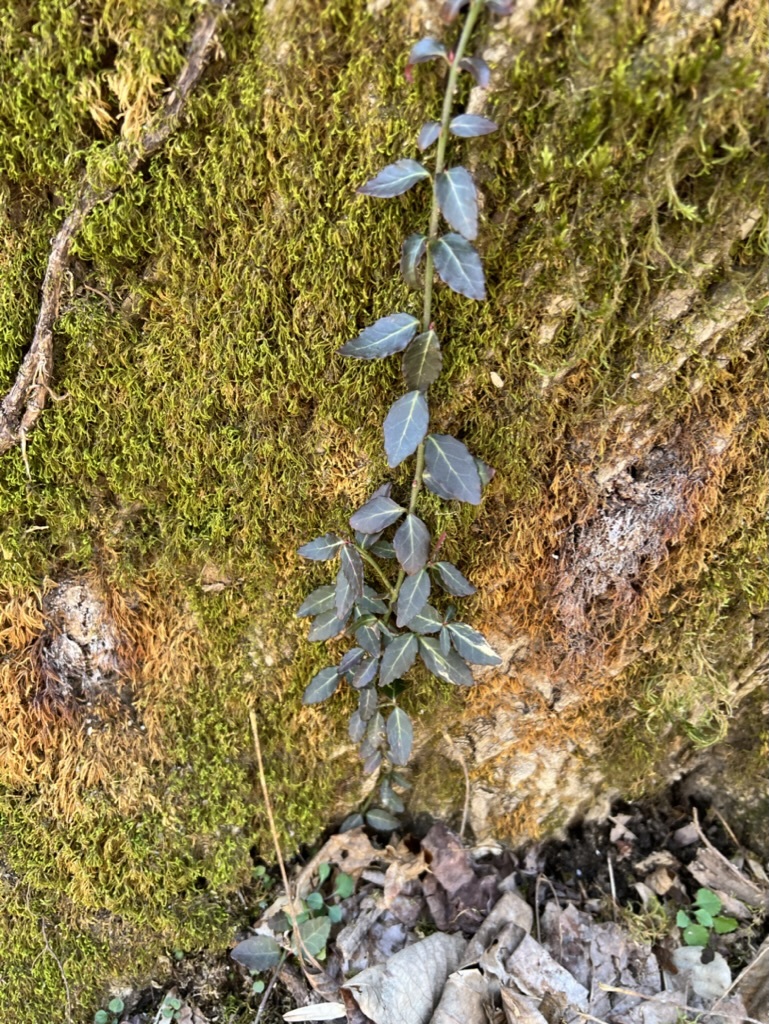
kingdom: Plantae
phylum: Tracheophyta
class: Magnoliopsida
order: Celastrales
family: Celastraceae
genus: Euonymus
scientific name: Euonymus fortunei
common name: Climbing euonymus
